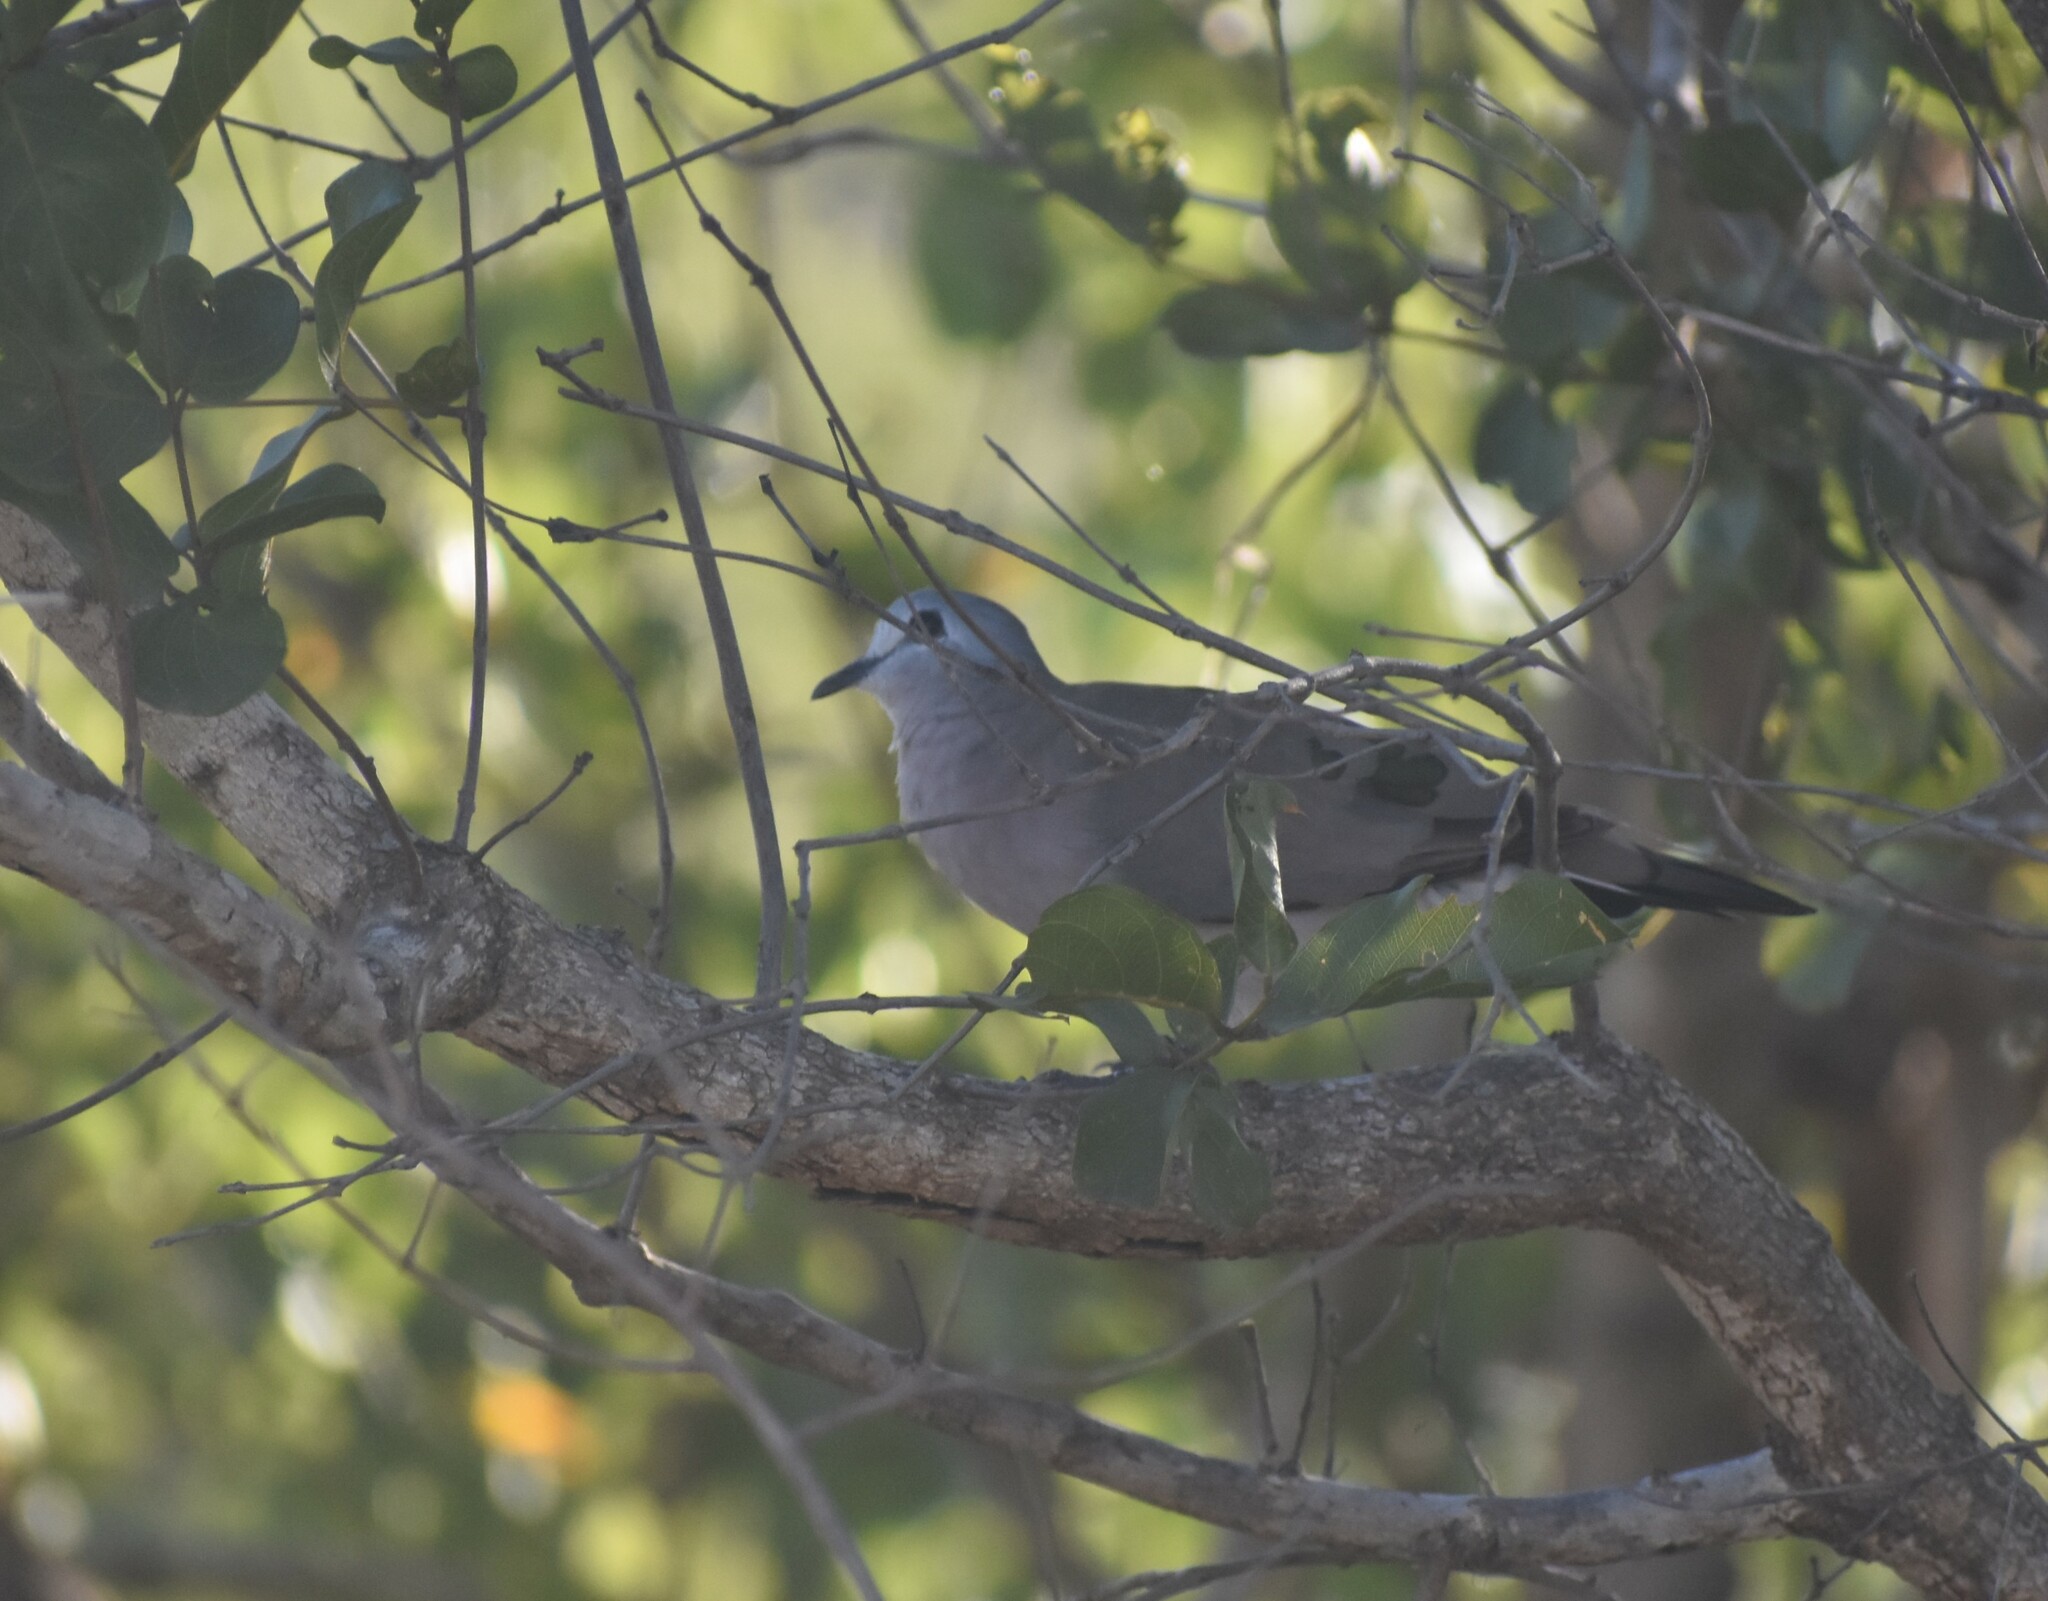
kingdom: Animalia
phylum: Chordata
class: Aves
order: Columbiformes
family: Columbidae
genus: Turtur
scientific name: Turtur chalcospilos
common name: Emerald-spotted wood dove
